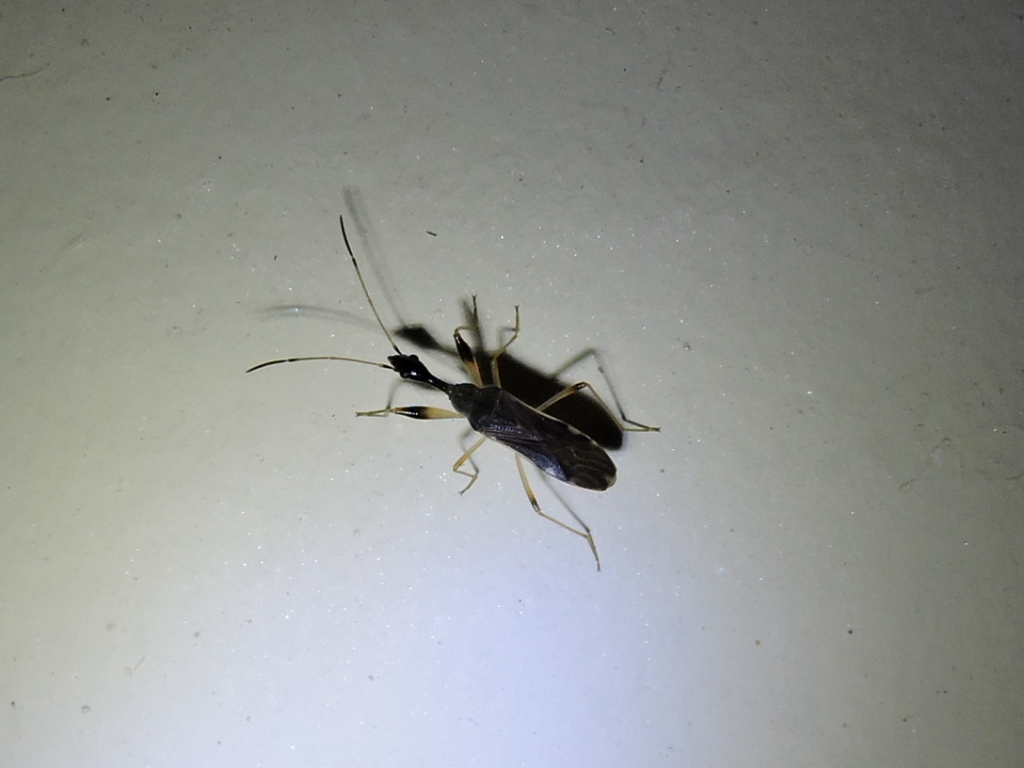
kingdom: Animalia
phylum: Arthropoda
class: Insecta
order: Hemiptera
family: Rhyparochromidae
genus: Myodocha
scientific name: Myodocha serripes
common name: Long-necked seed bug
